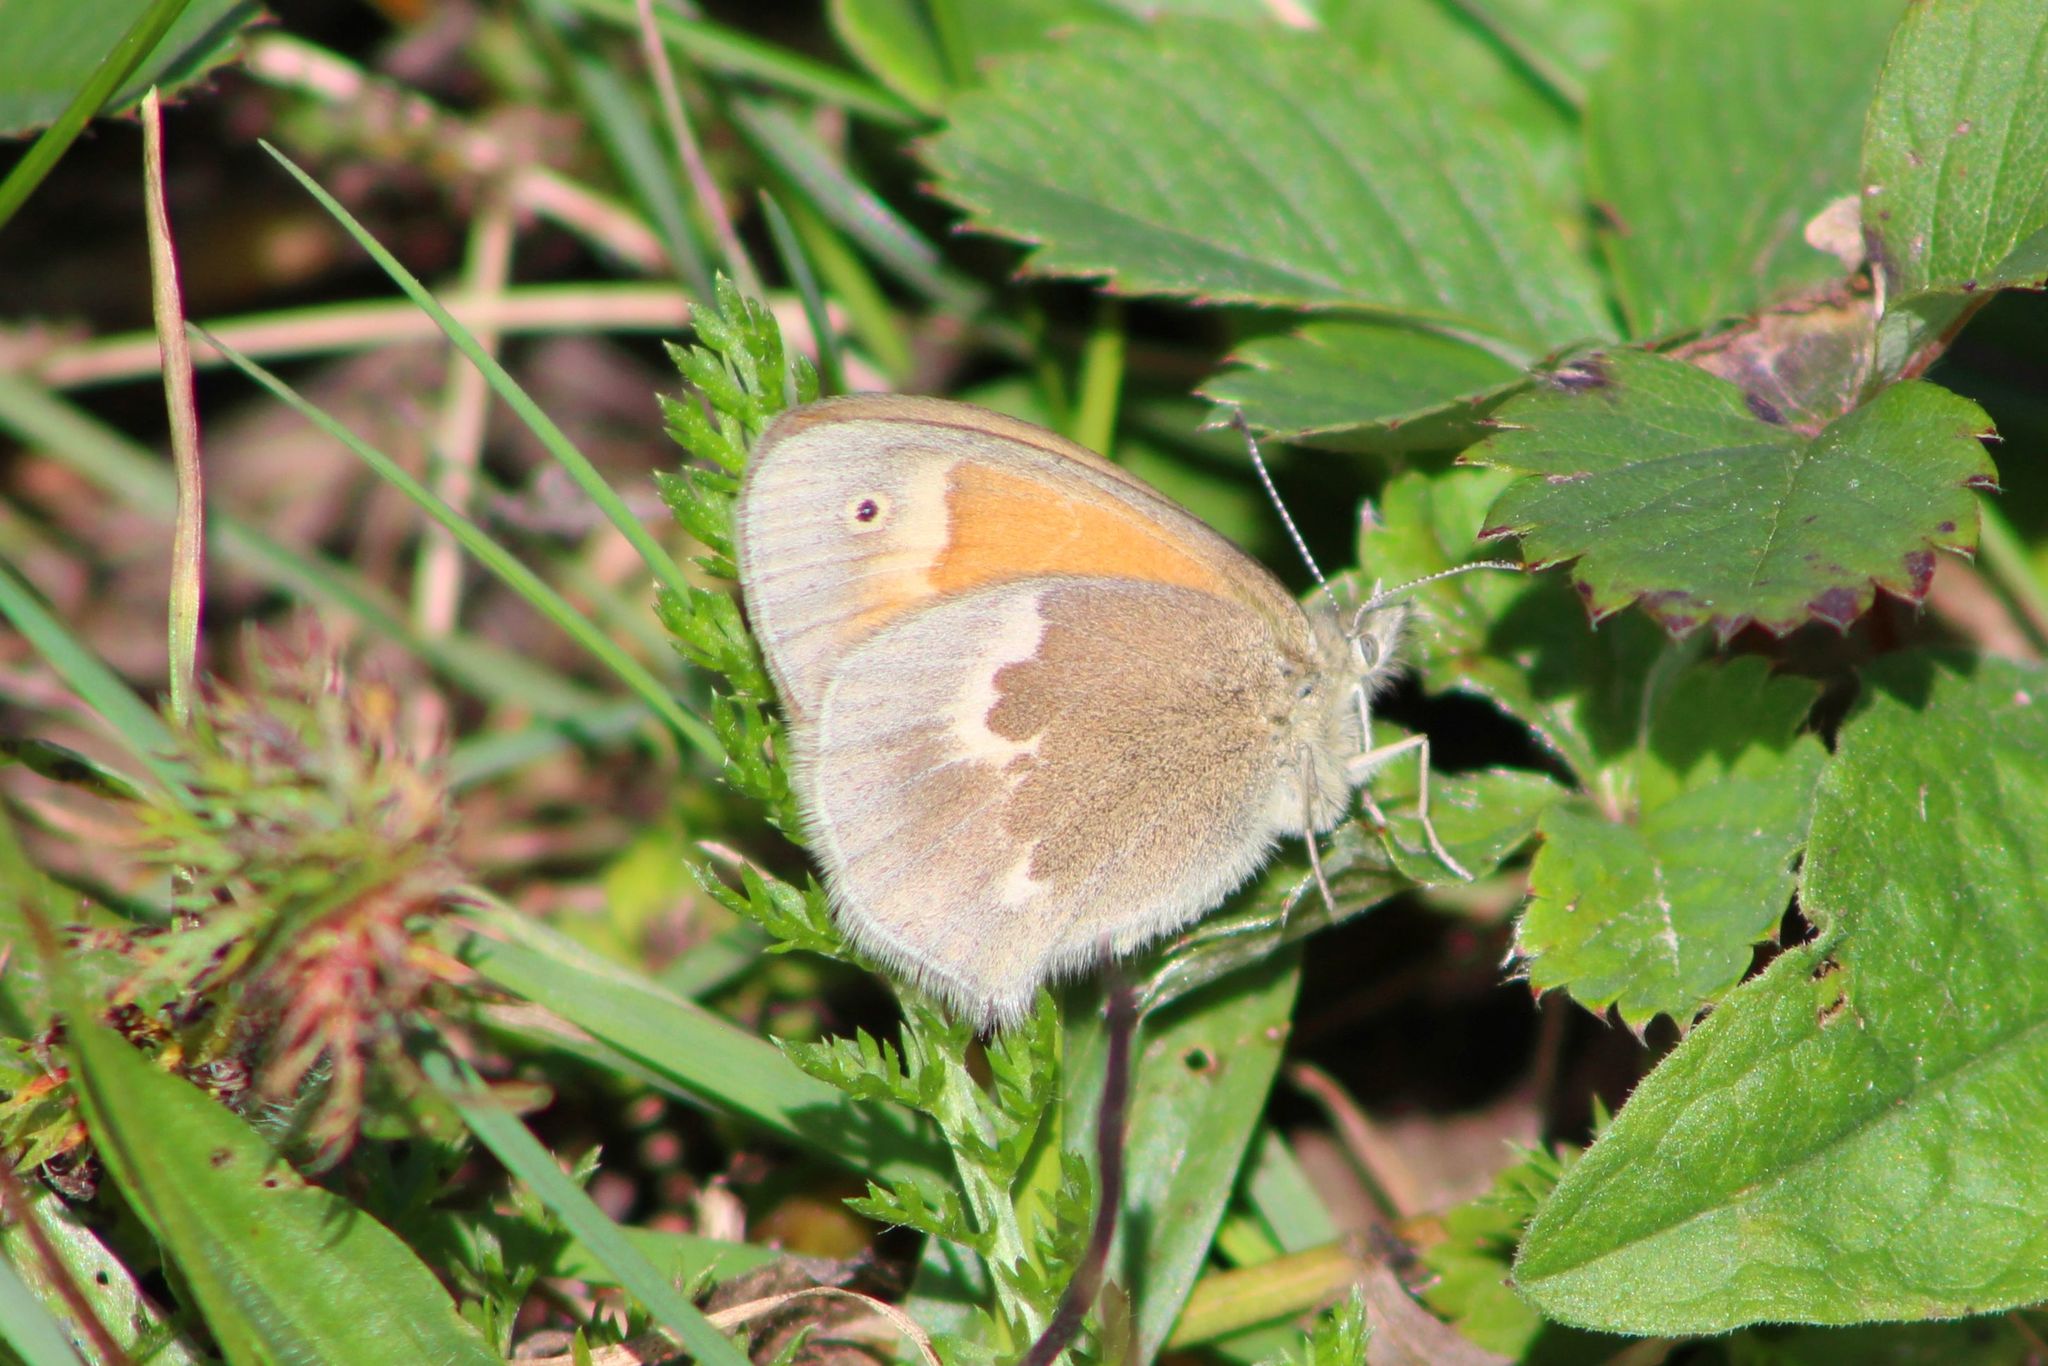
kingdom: Animalia
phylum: Arthropoda
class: Insecta
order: Lepidoptera
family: Nymphalidae
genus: Coenonympha
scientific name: Coenonympha california
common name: Common ringlet
